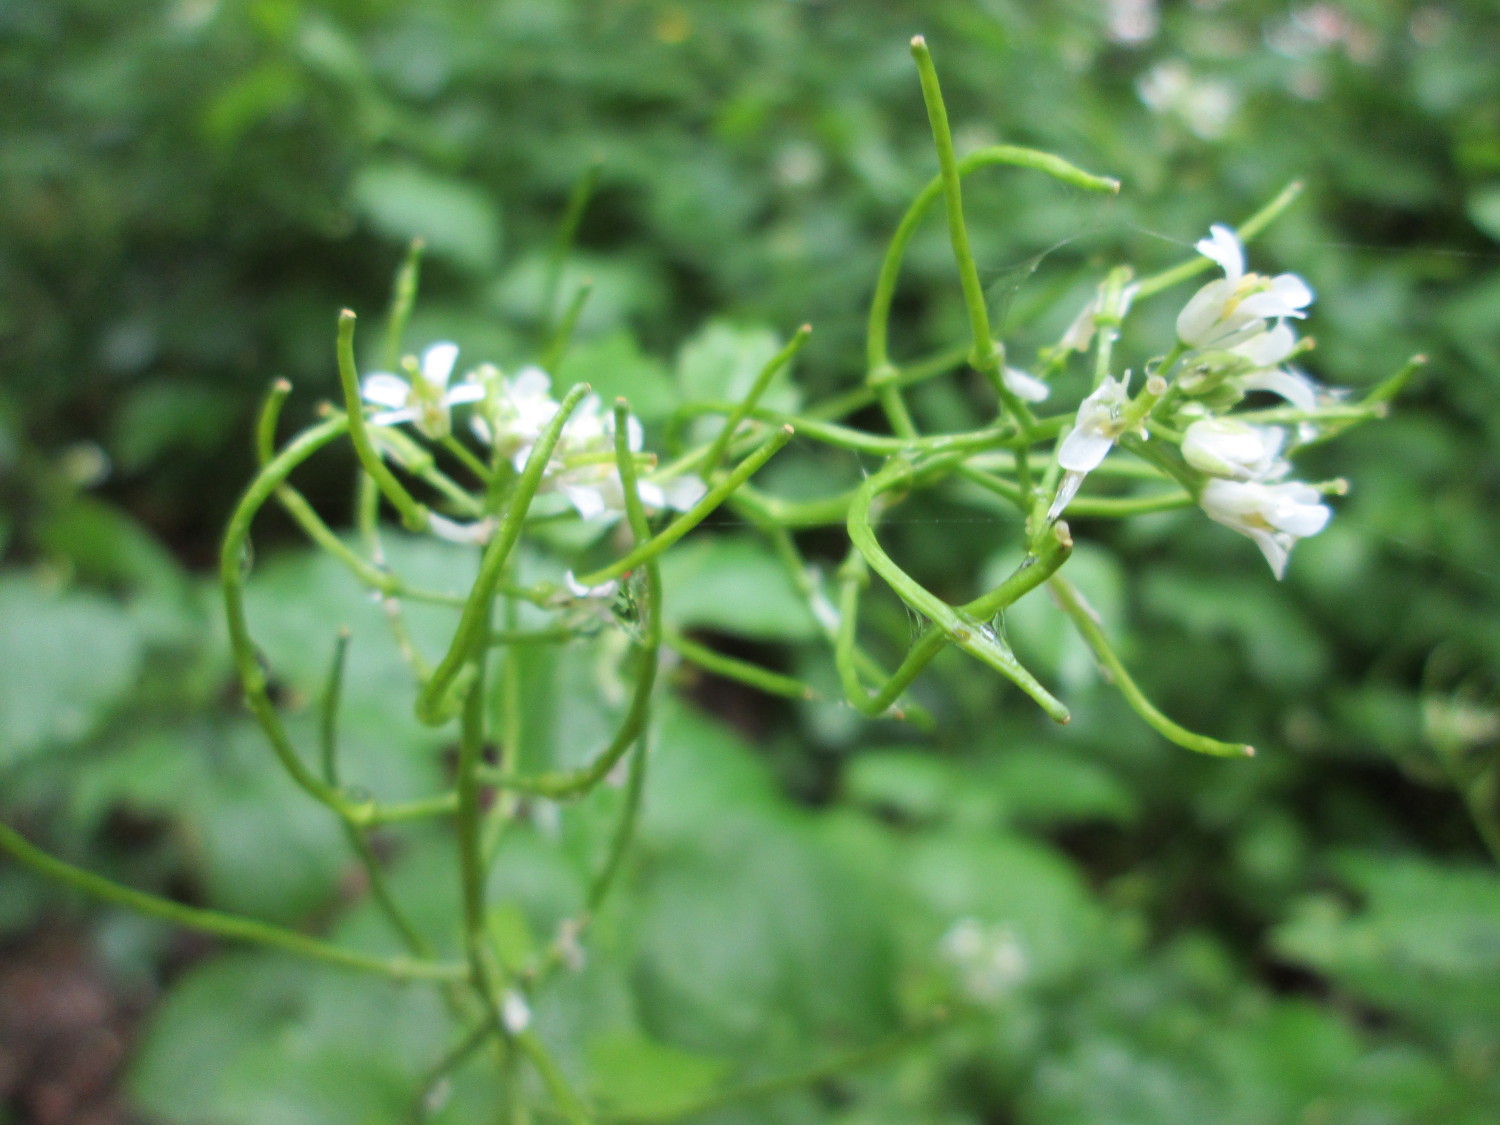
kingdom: Plantae
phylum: Tracheophyta
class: Magnoliopsida
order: Brassicales
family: Brassicaceae
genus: Alliaria
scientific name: Alliaria petiolata
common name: Garlic mustard
